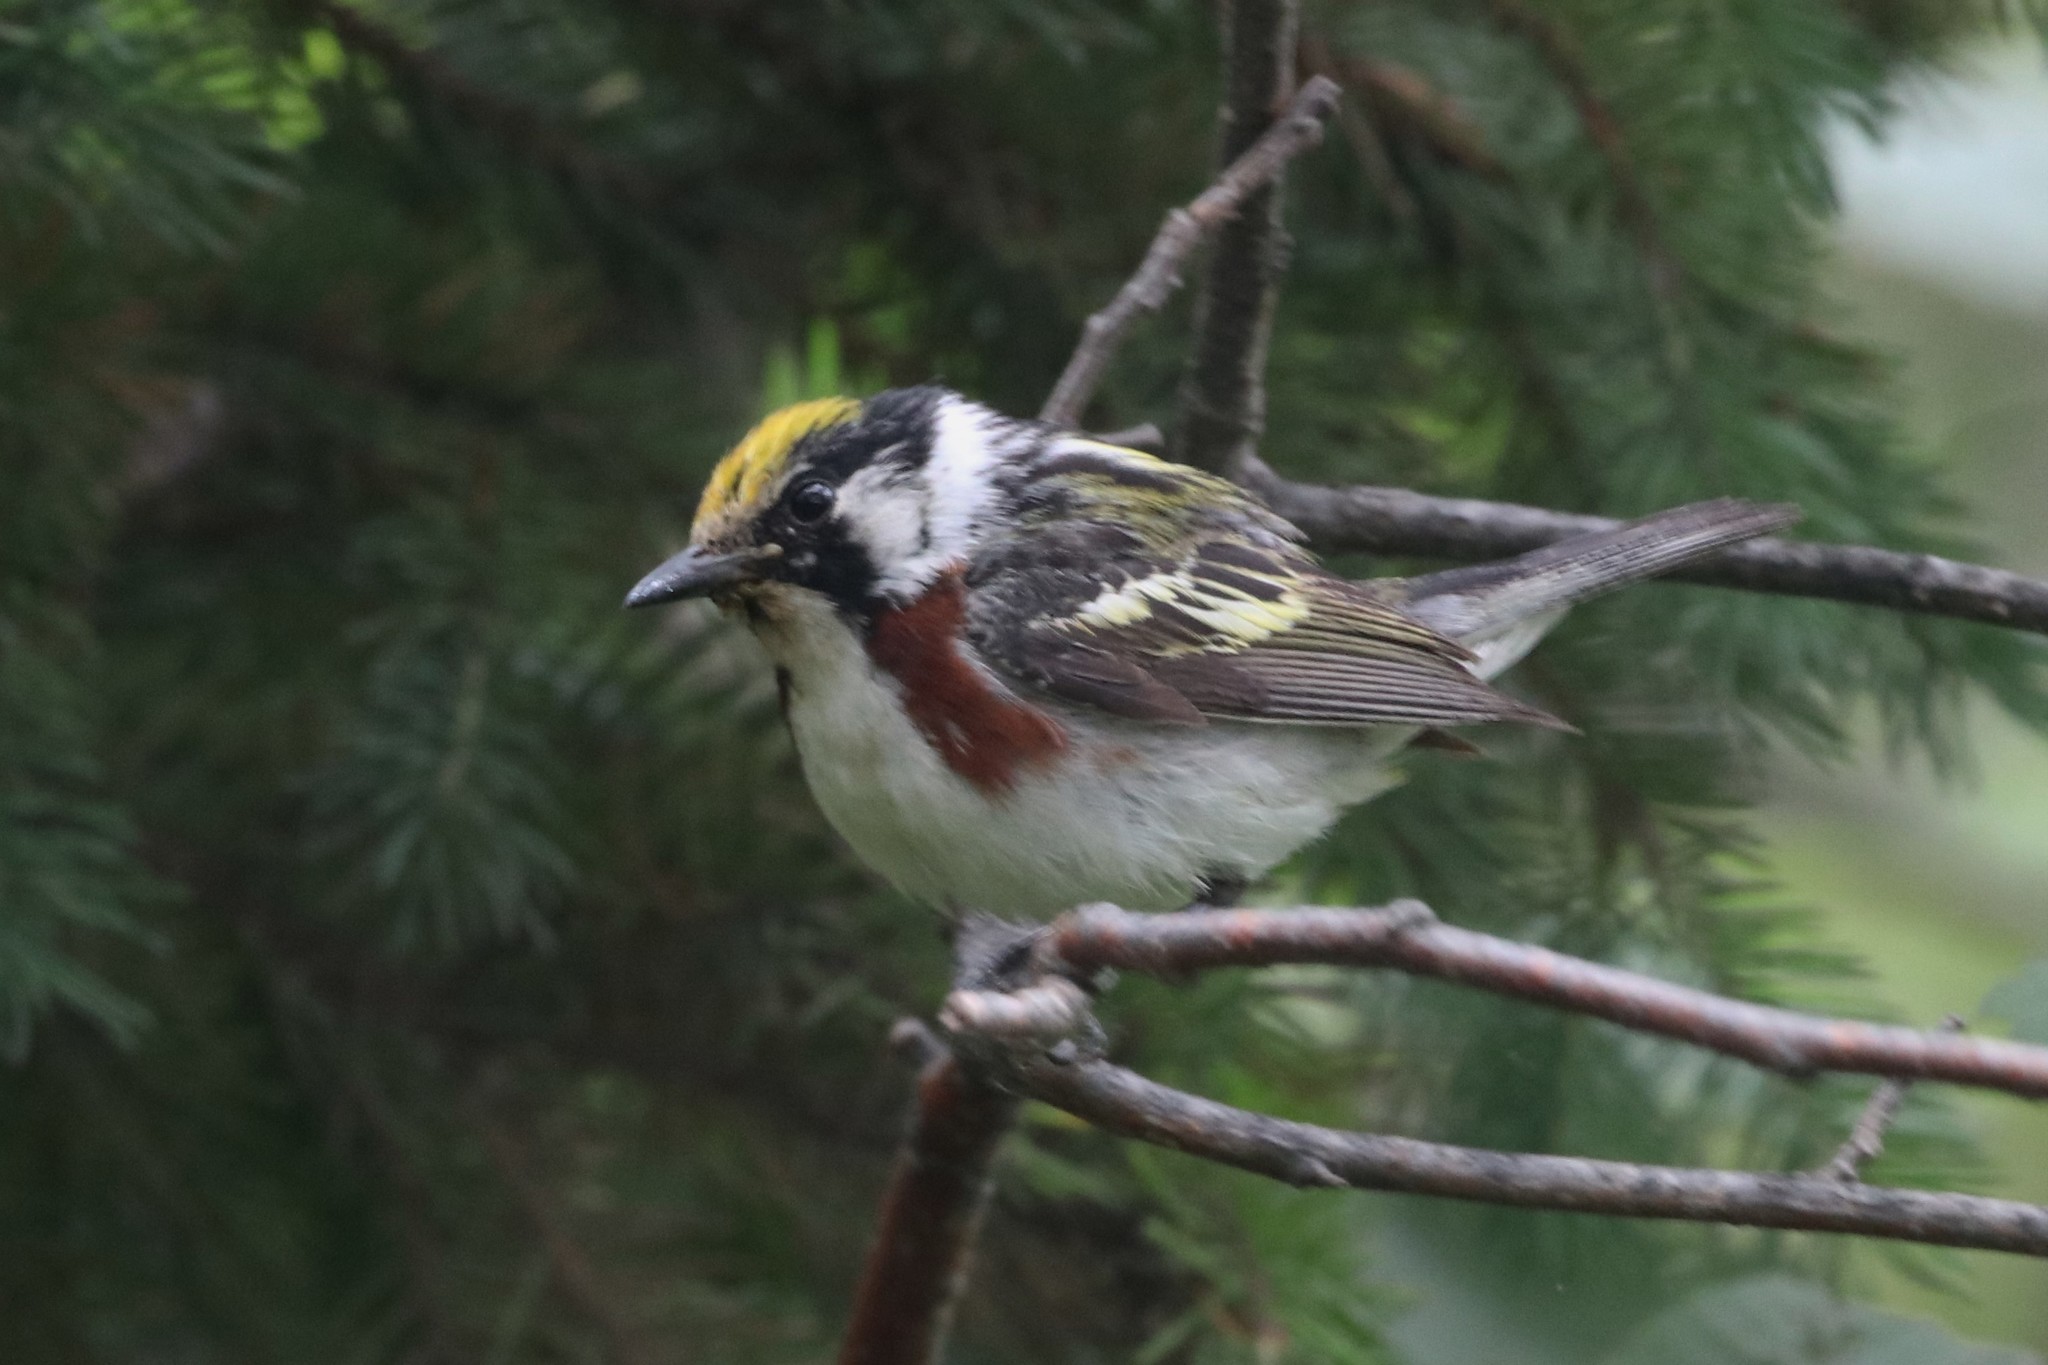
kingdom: Animalia
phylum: Chordata
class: Aves
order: Passeriformes
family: Parulidae
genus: Setophaga
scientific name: Setophaga pensylvanica
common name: Chestnut-sided warbler
